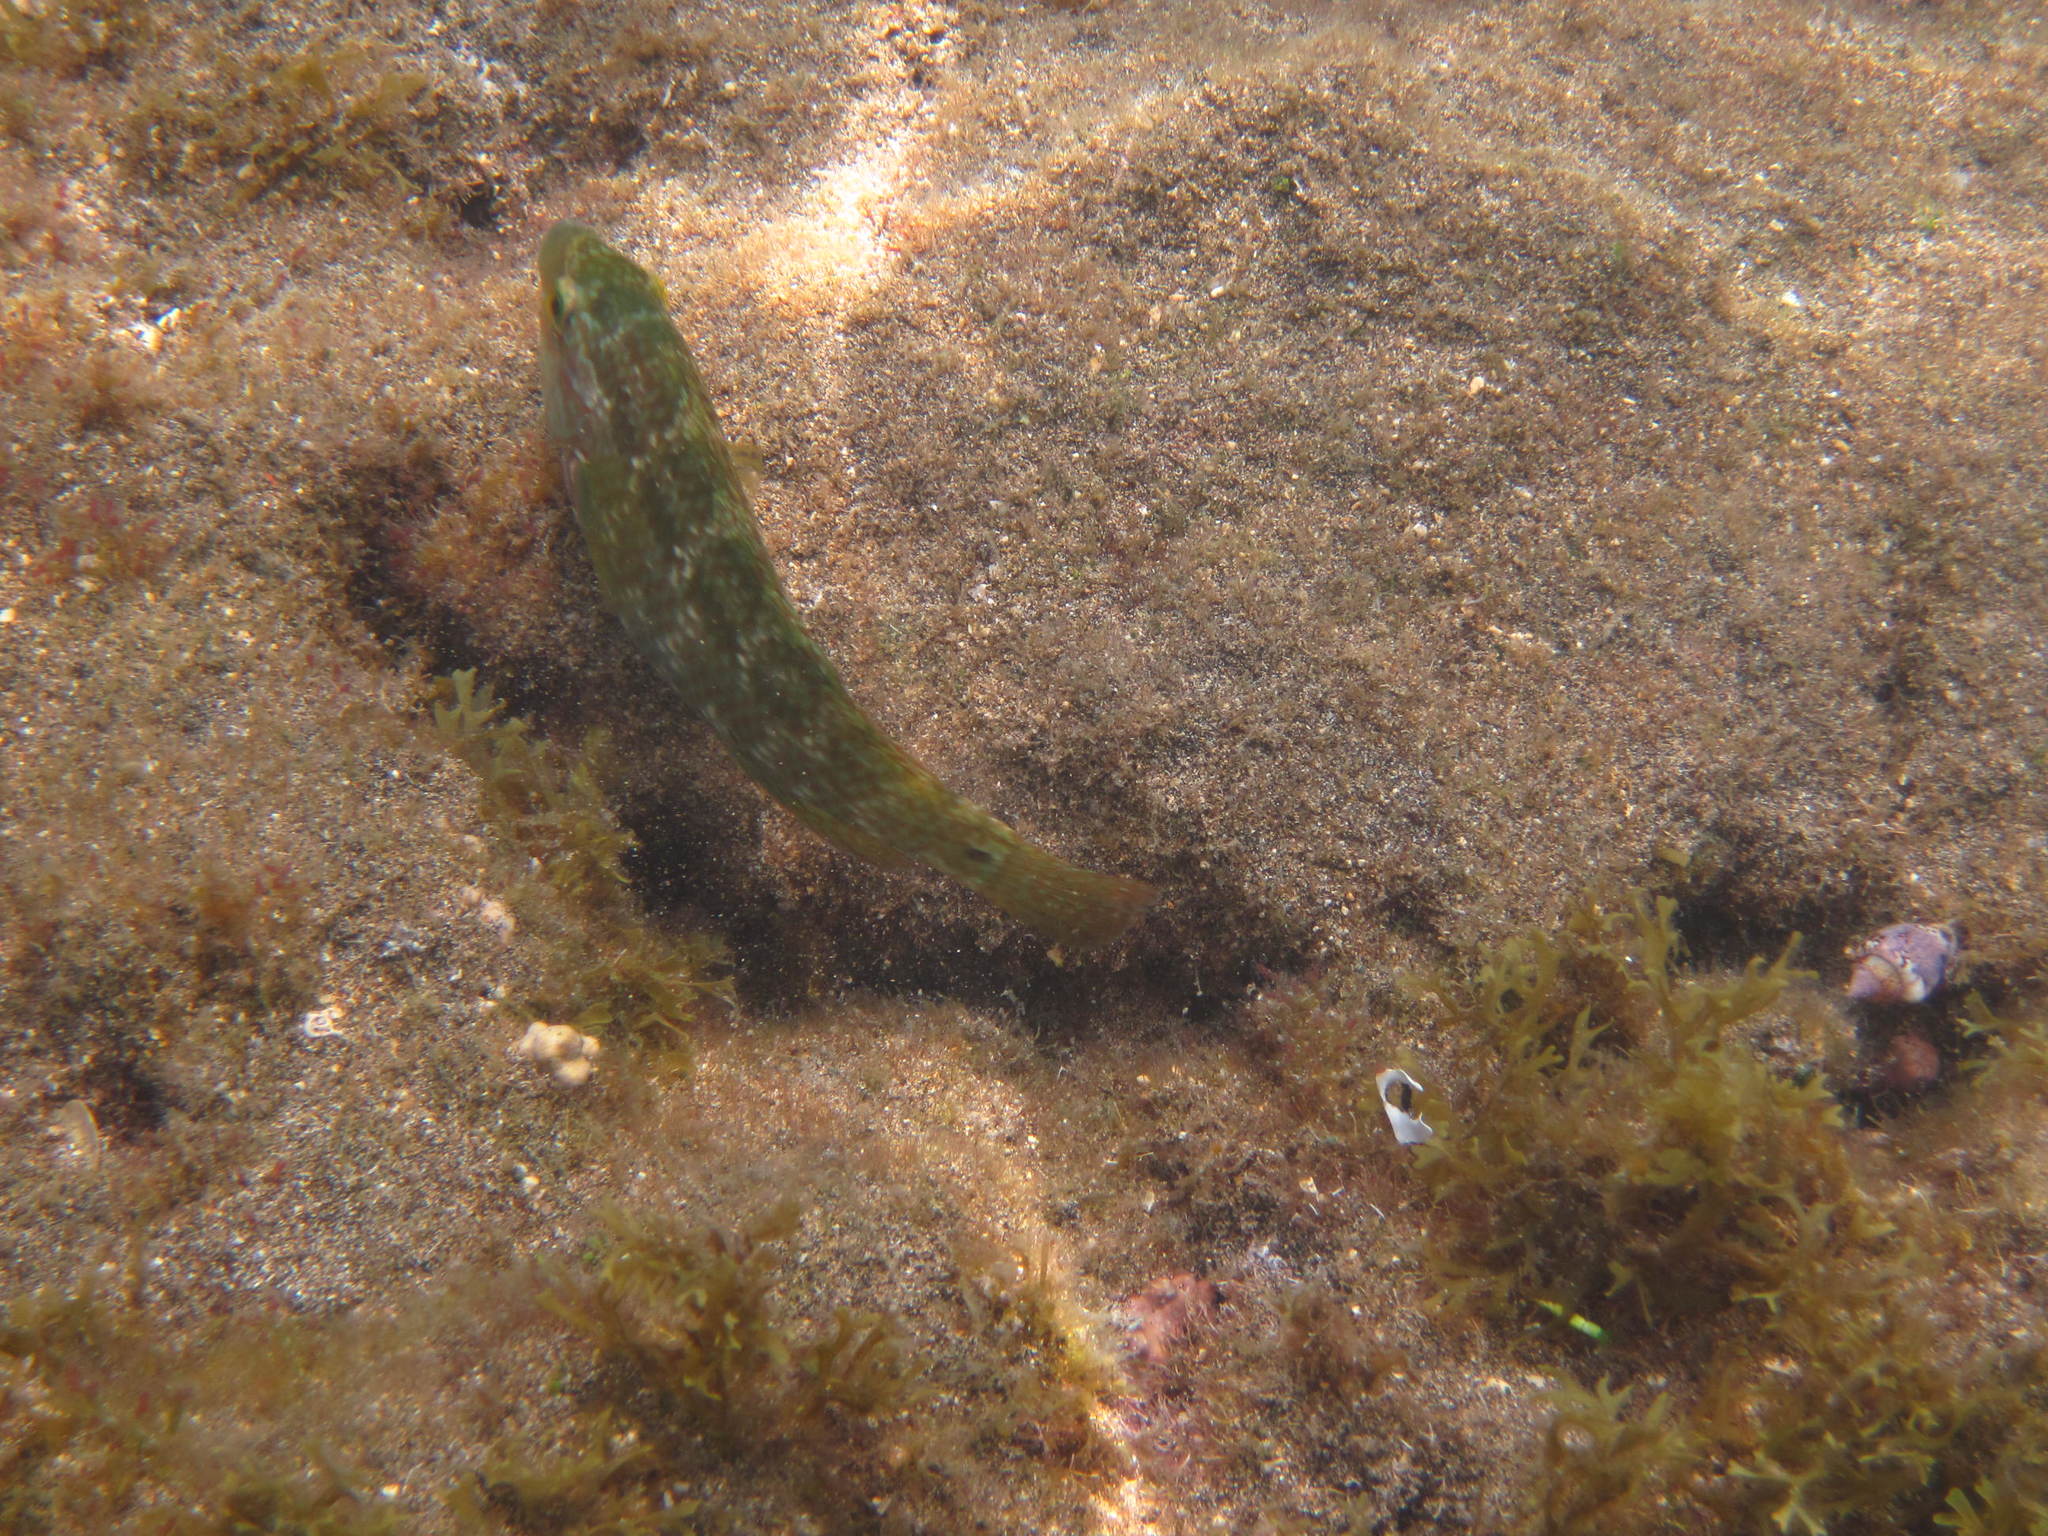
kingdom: Animalia
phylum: Chordata
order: Perciformes
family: Labridae
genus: Symphodus
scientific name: Symphodus
